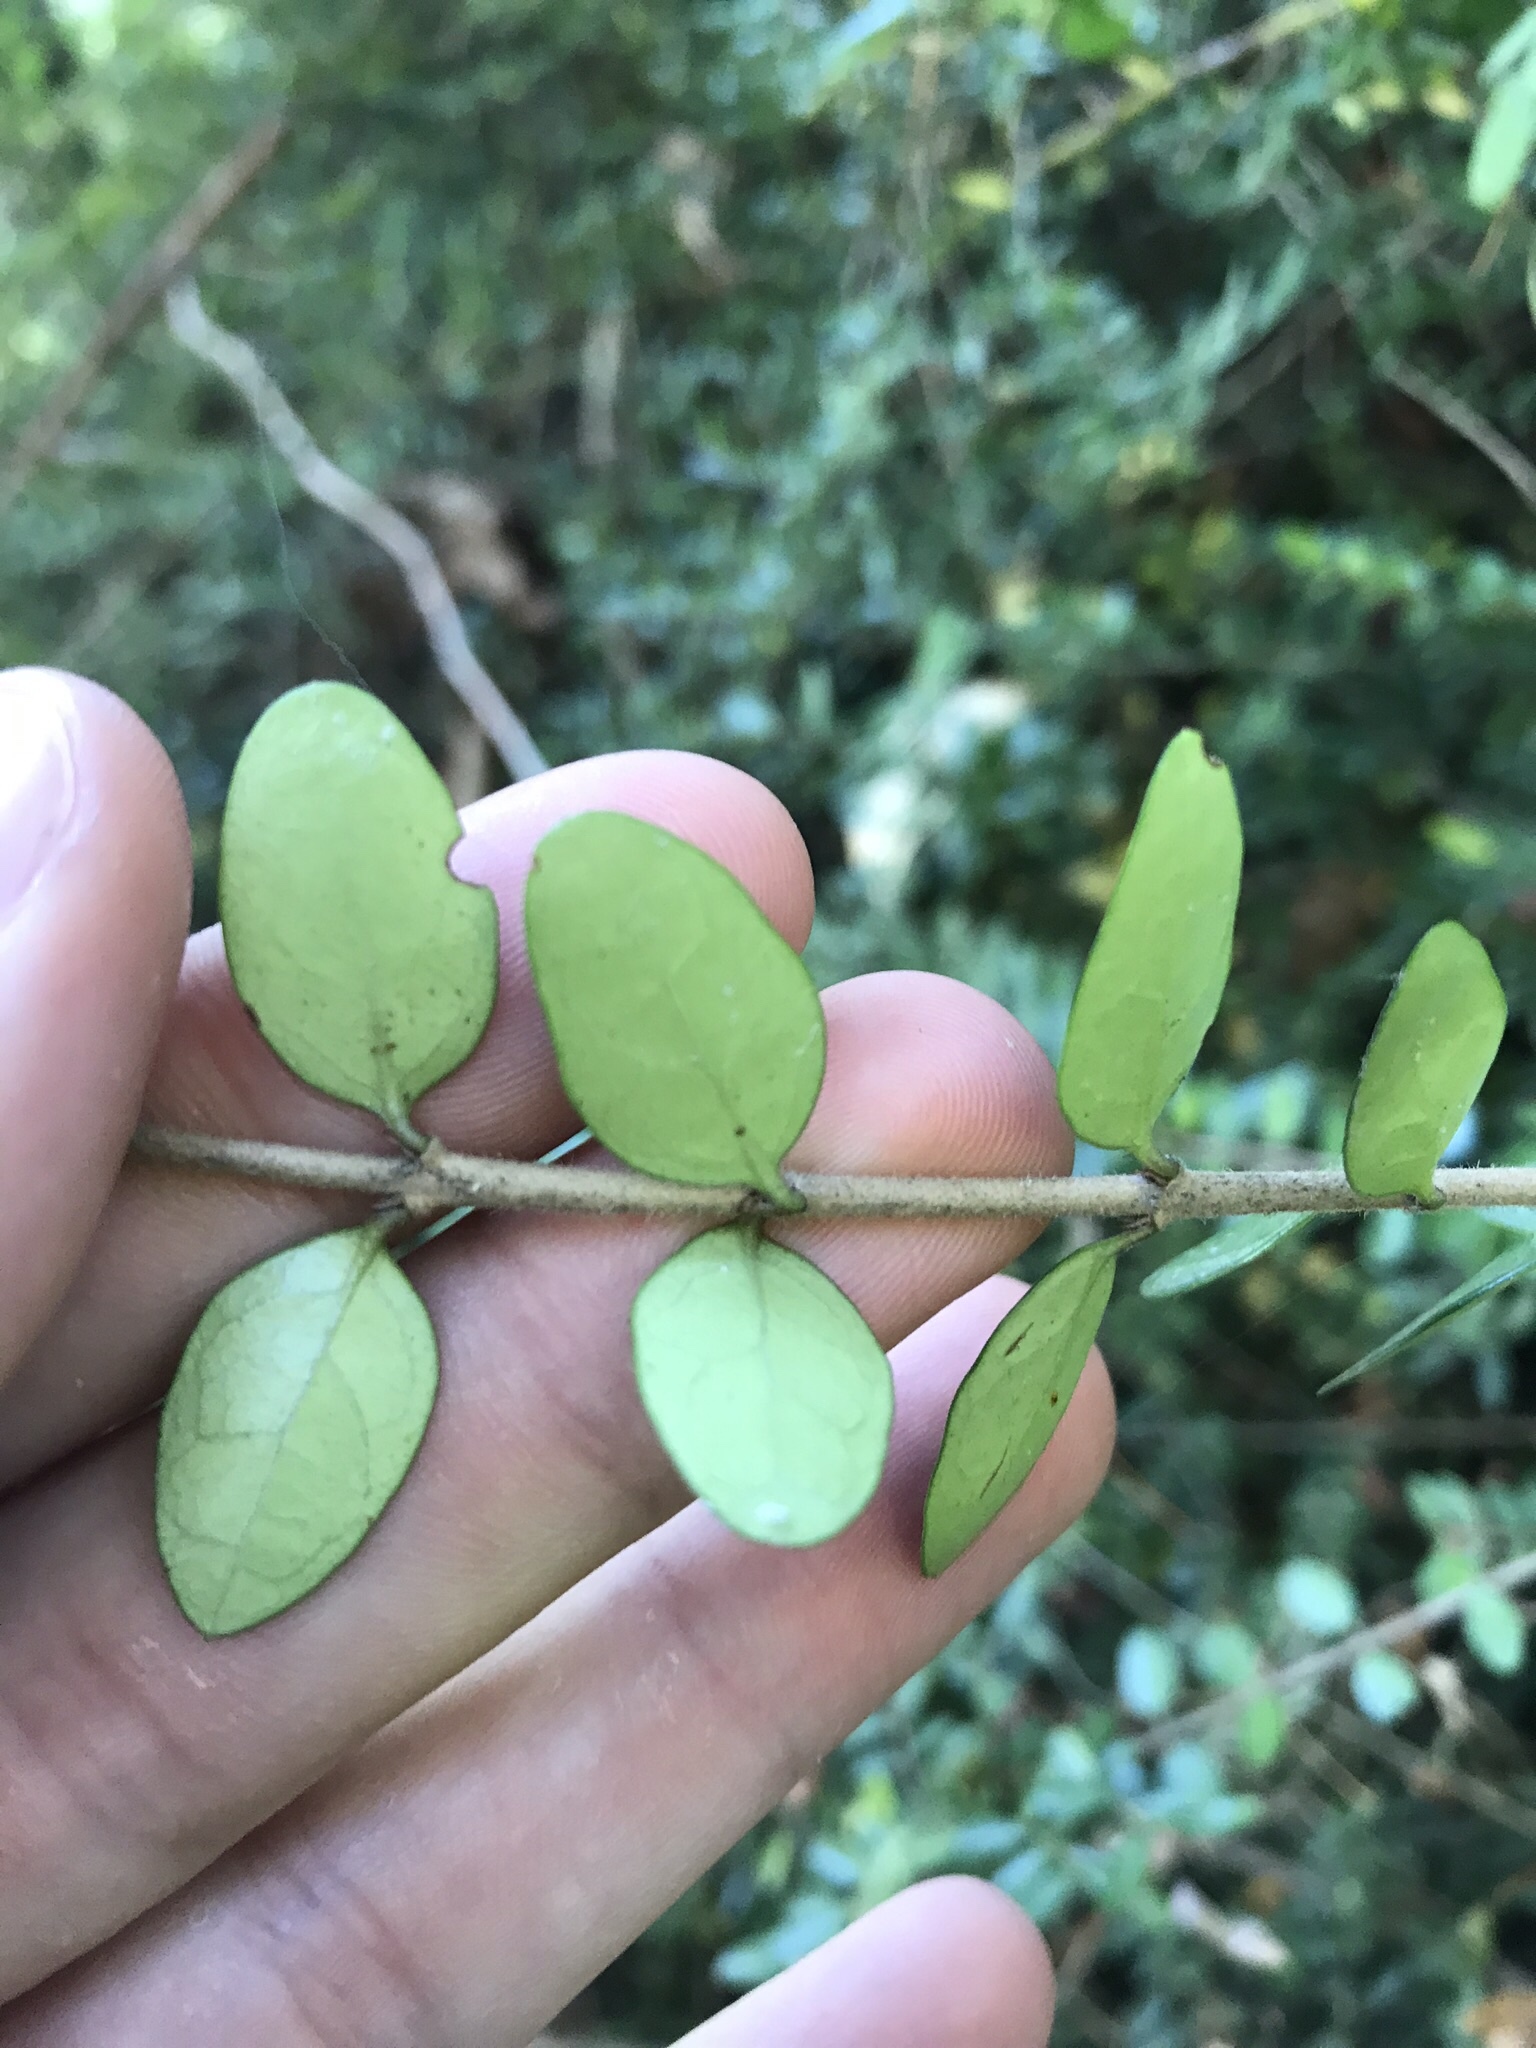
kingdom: Plantae
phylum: Tracheophyta
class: Magnoliopsida
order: Dipsacales
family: Caprifoliaceae
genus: Lonicera
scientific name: Lonicera ligustrina
